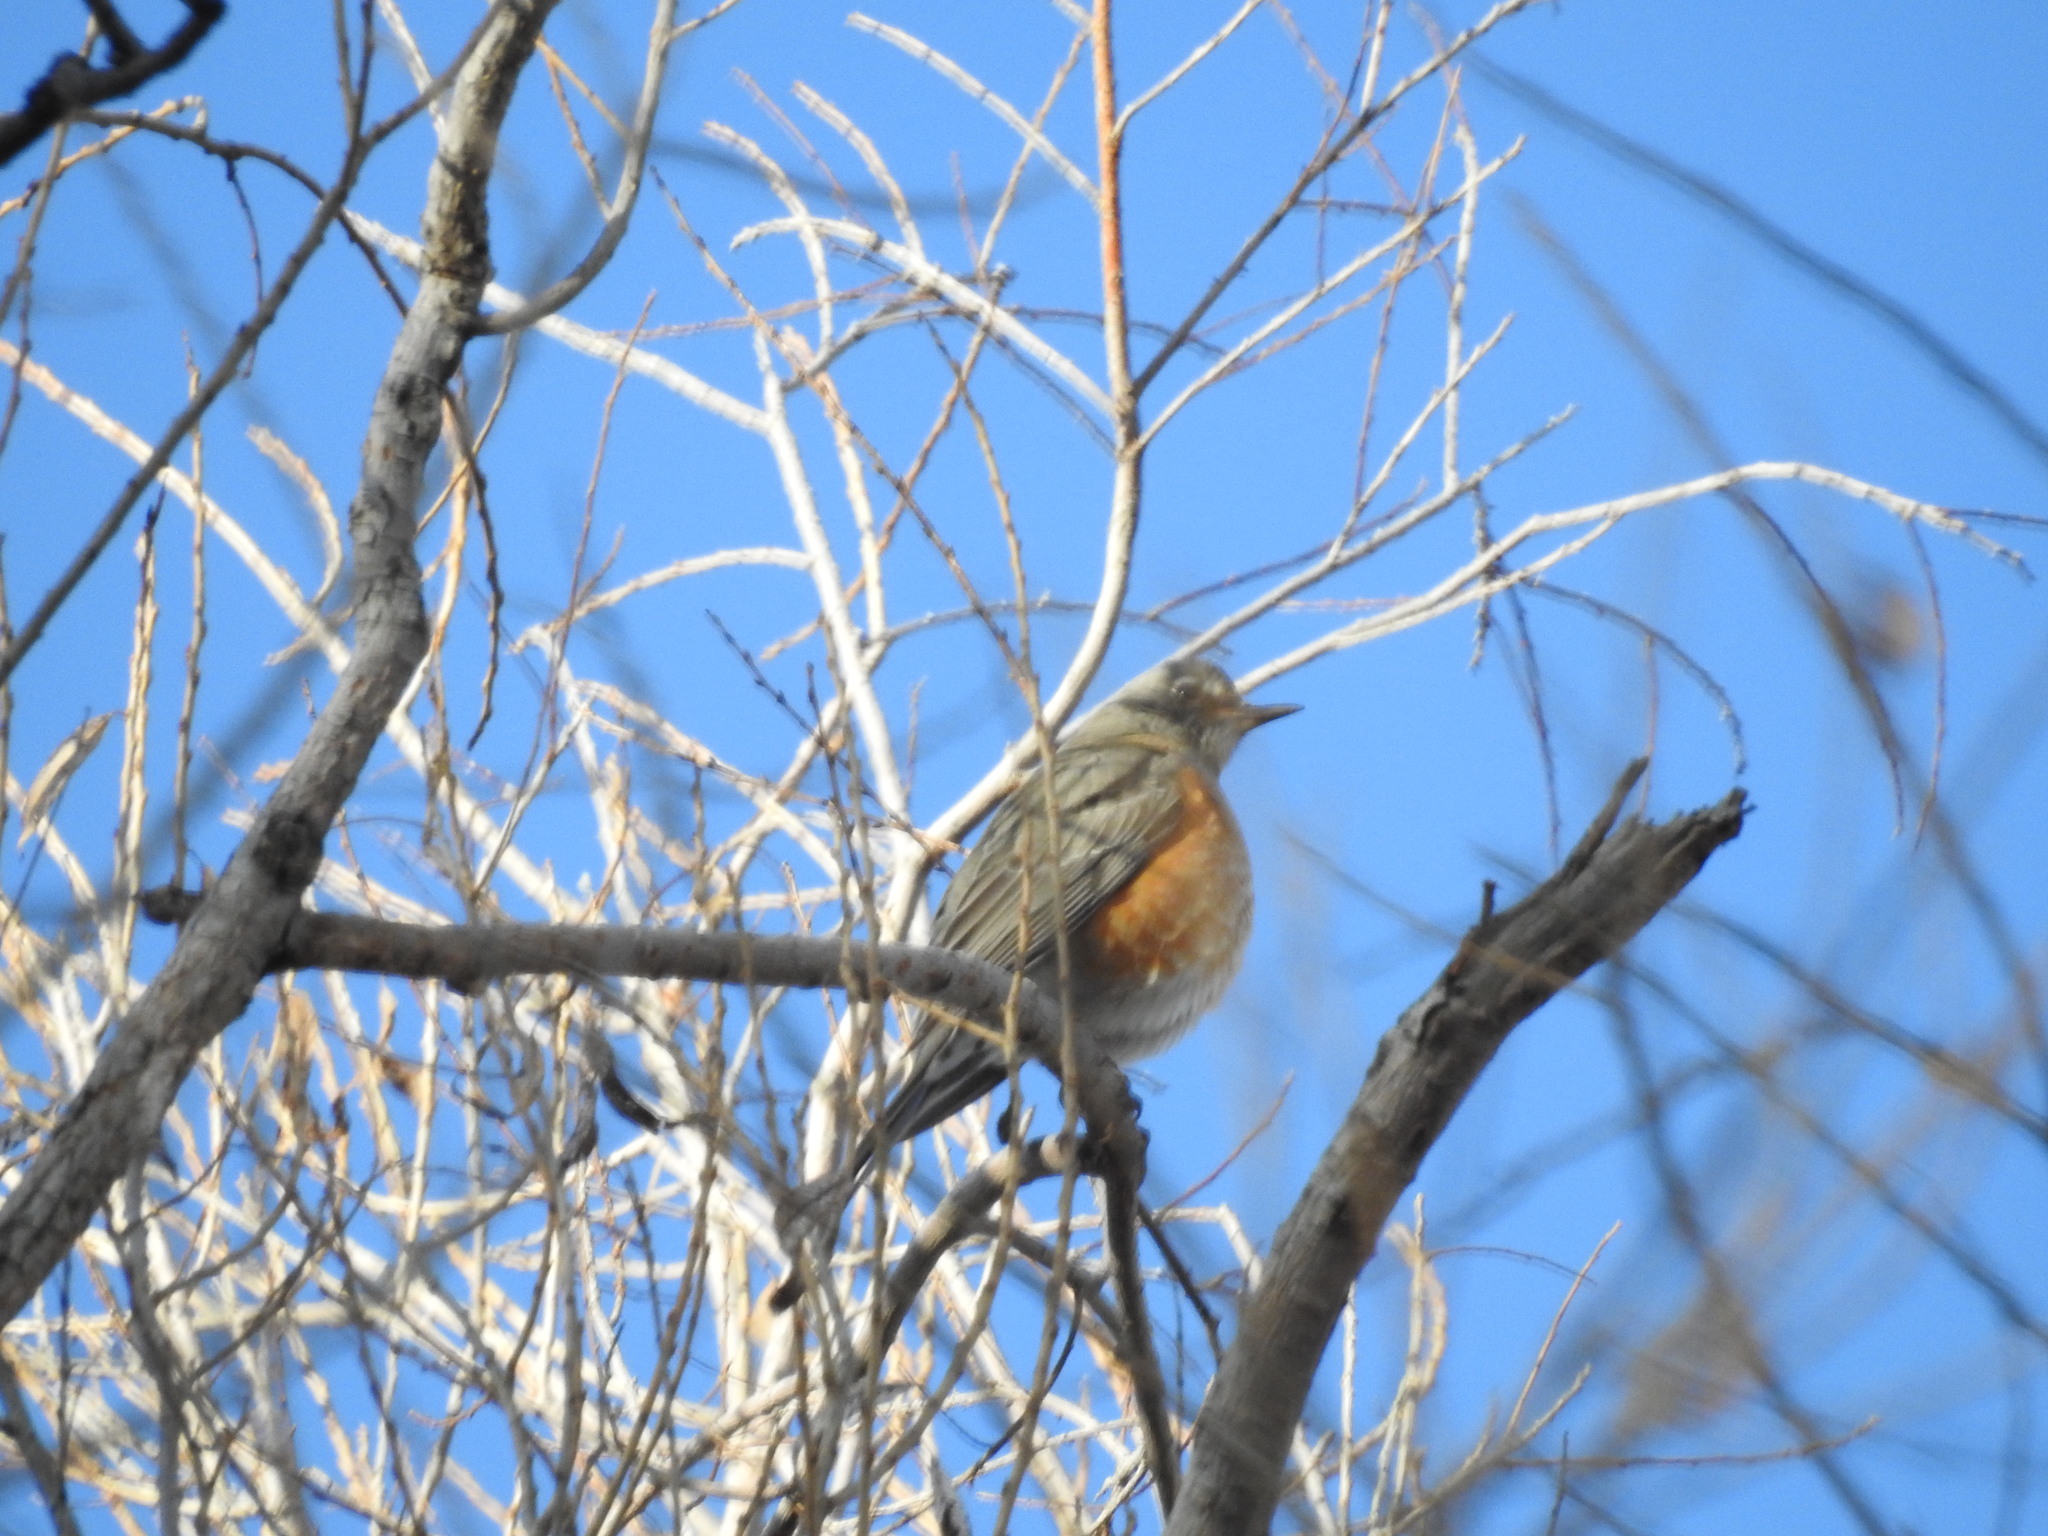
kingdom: Animalia
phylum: Chordata
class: Aves
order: Passeriformes
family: Turdidae
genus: Turdus
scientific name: Turdus migratorius
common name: American robin
